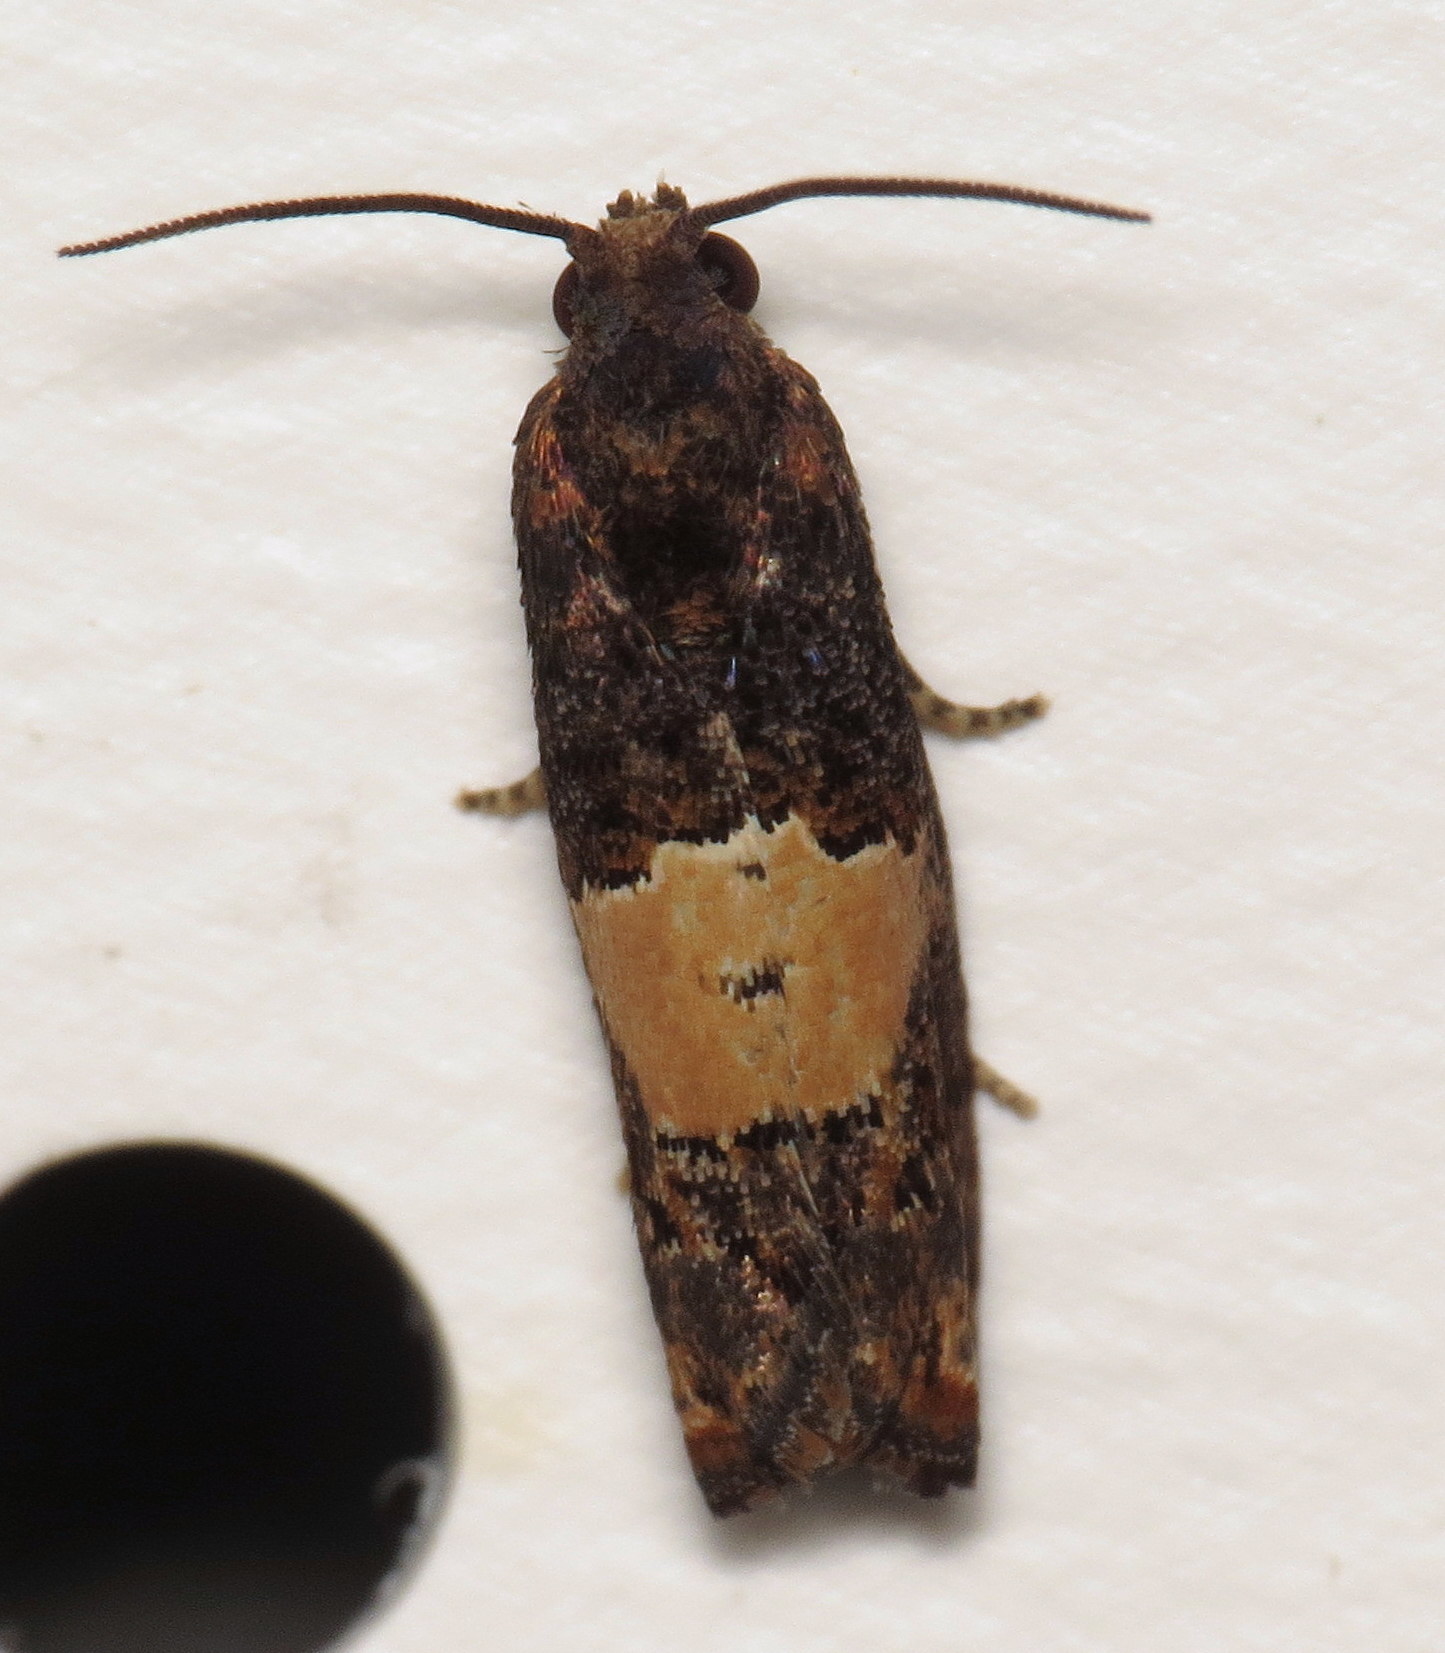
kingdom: Animalia
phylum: Arthropoda
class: Insecta
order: Lepidoptera
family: Tortricidae
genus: Epiblema
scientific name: Epiblema glenni
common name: Glenn's epiblema
